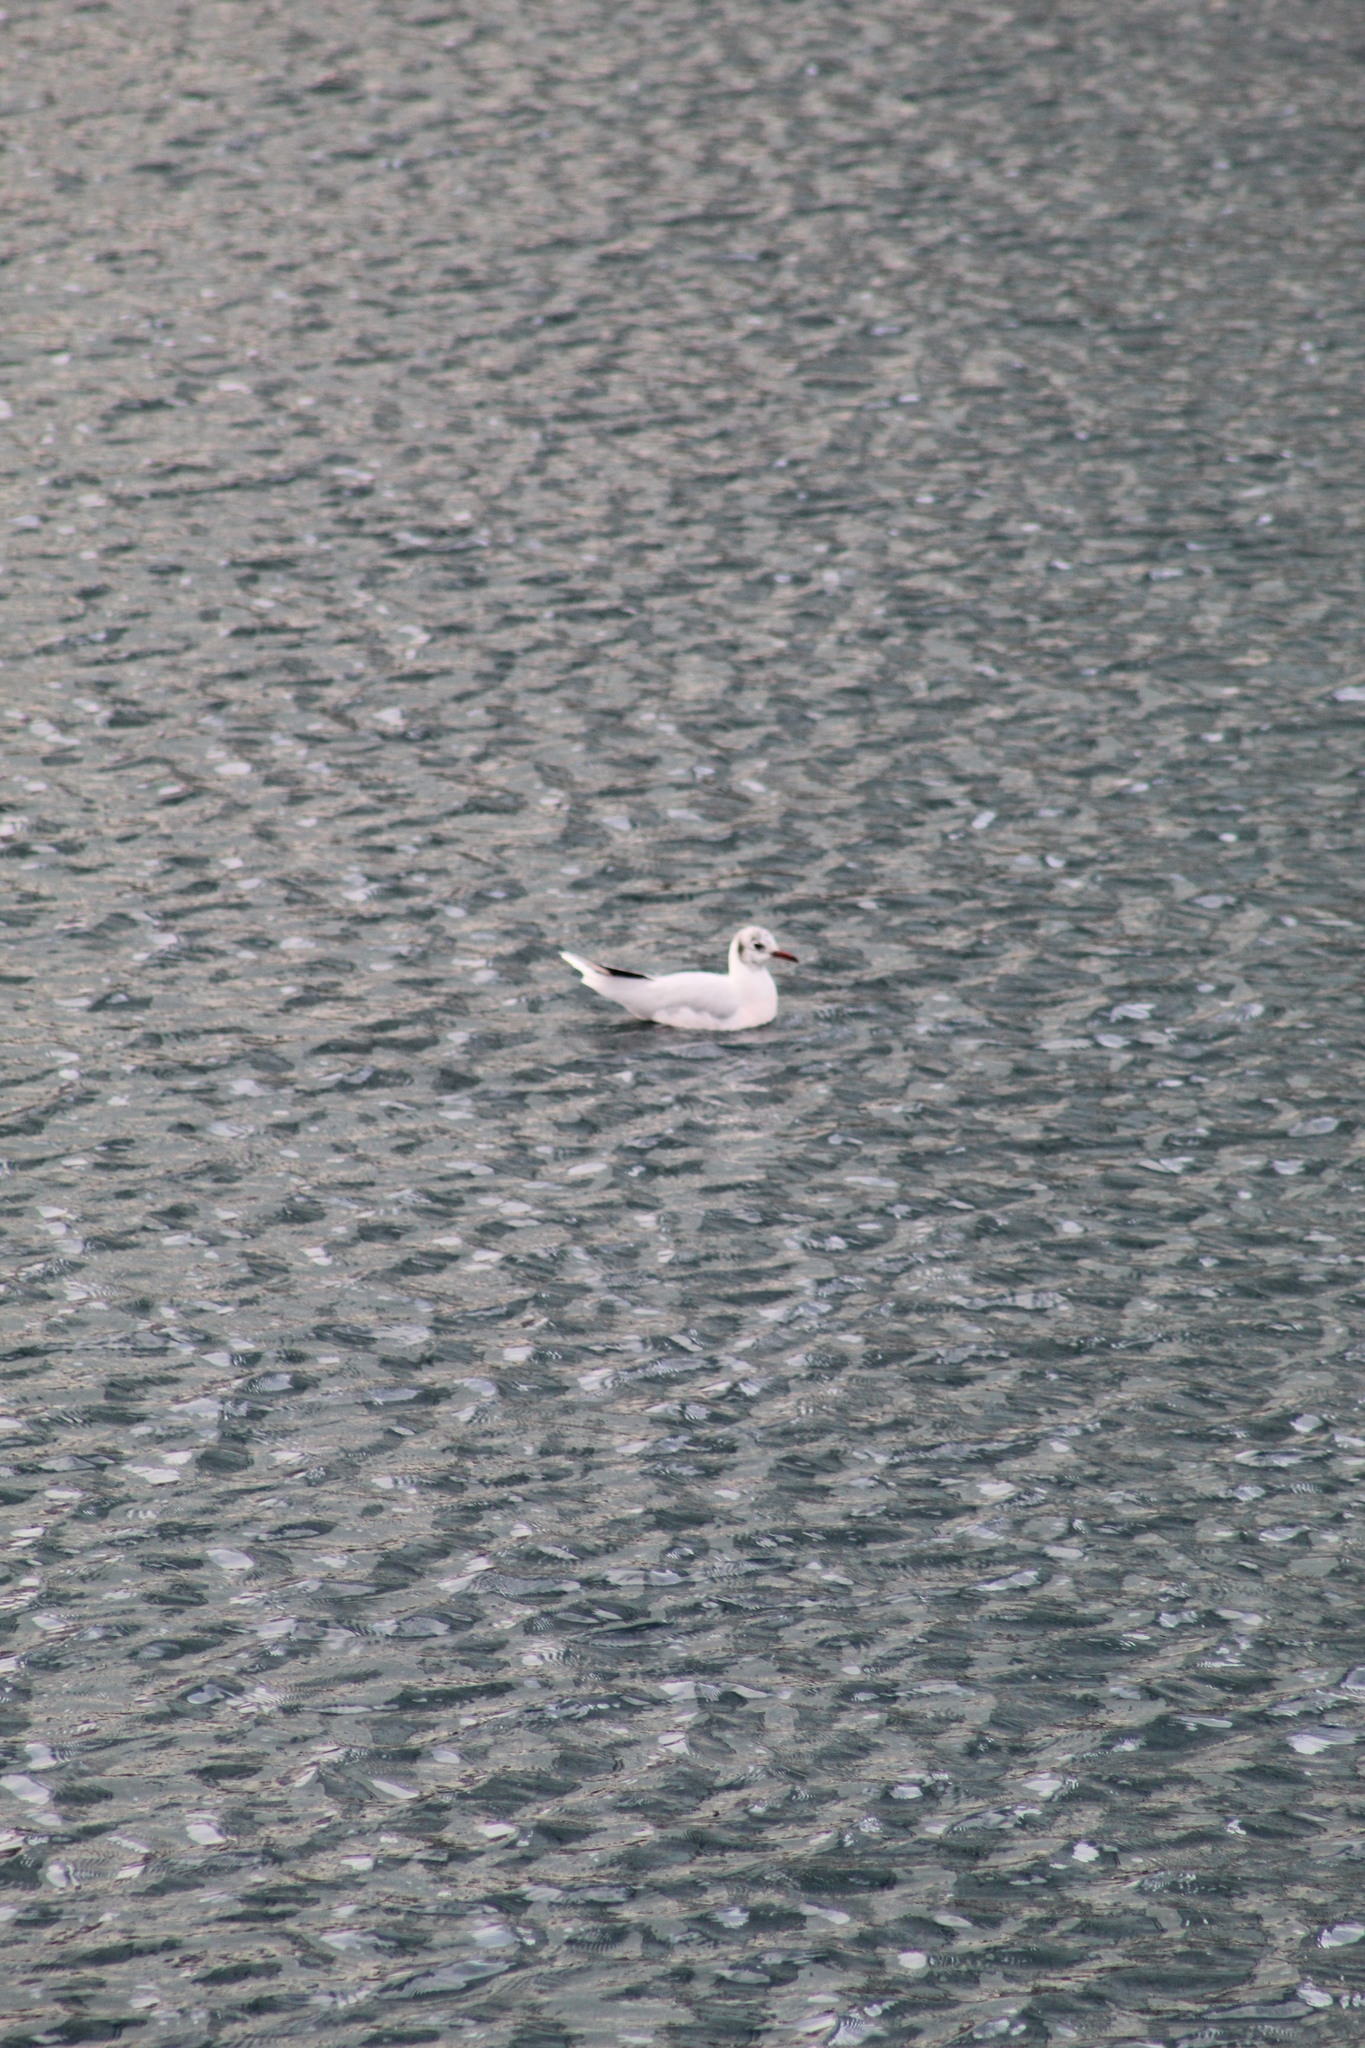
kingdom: Animalia
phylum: Chordata
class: Aves
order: Charadriiformes
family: Laridae
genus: Chroicocephalus
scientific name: Chroicocephalus maculipennis
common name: Brown-hooded gull
